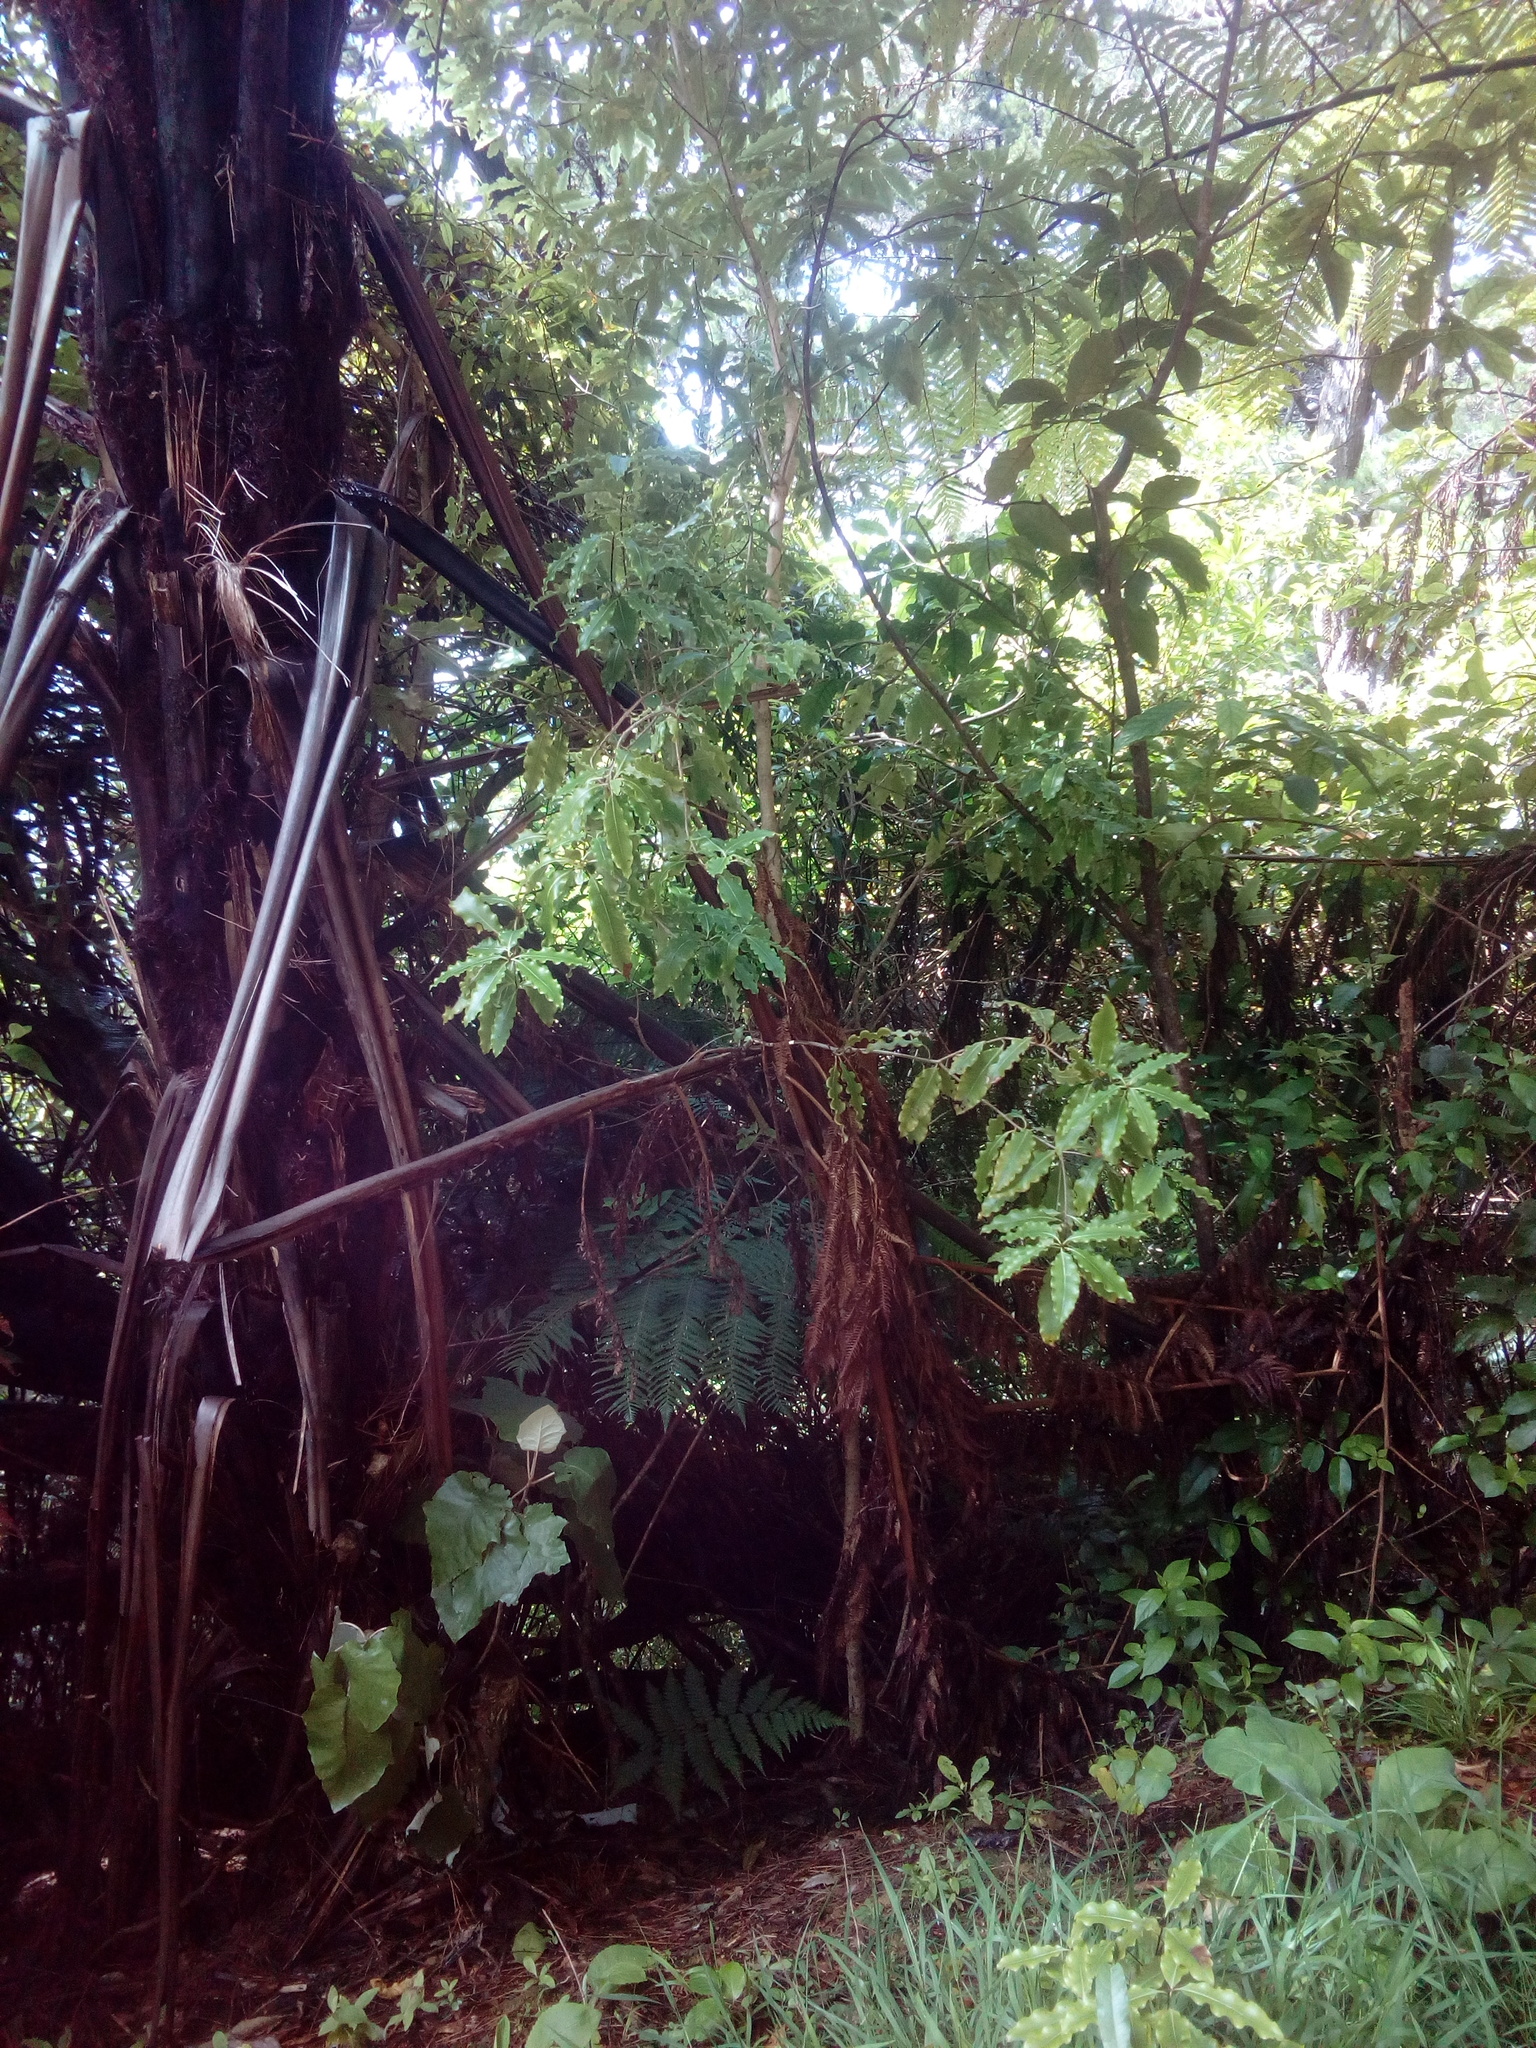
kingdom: Plantae
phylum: Tracheophyta
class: Magnoliopsida
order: Apiales
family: Pittosporaceae
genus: Pittosporum
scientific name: Pittosporum eugenioides
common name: Lemonwood
